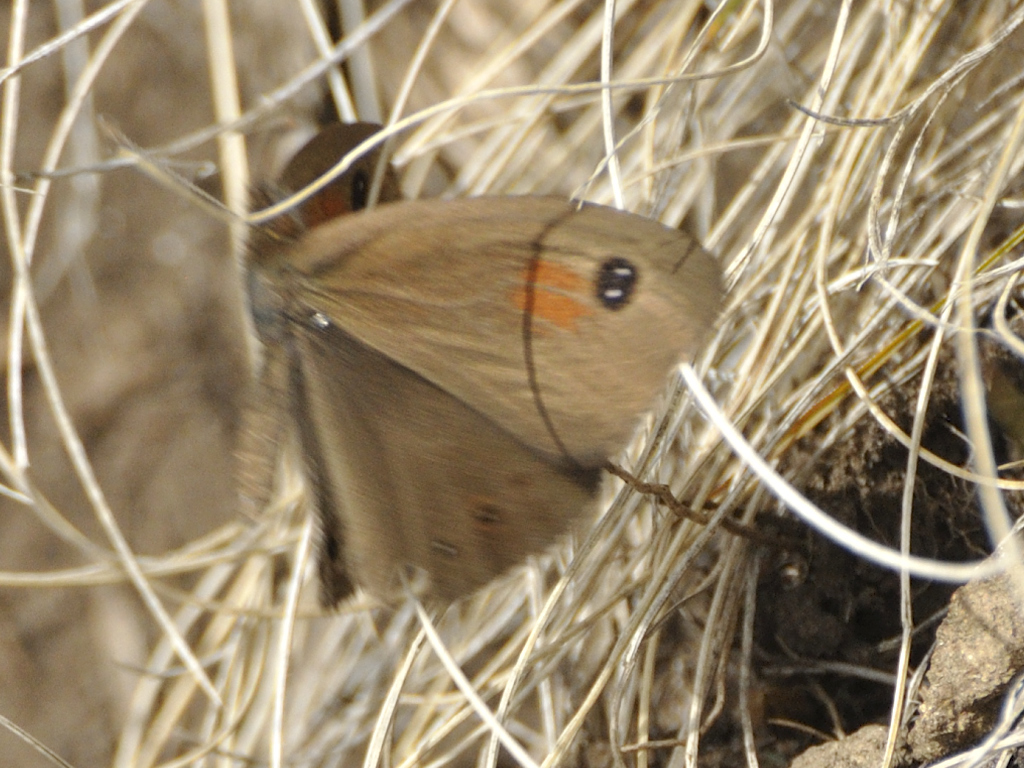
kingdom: Animalia
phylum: Arthropoda
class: Insecta
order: Lepidoptera
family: Nymphalidae
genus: Pseudonympha
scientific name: Pseudonympha magus
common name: Silver-bottom brown
